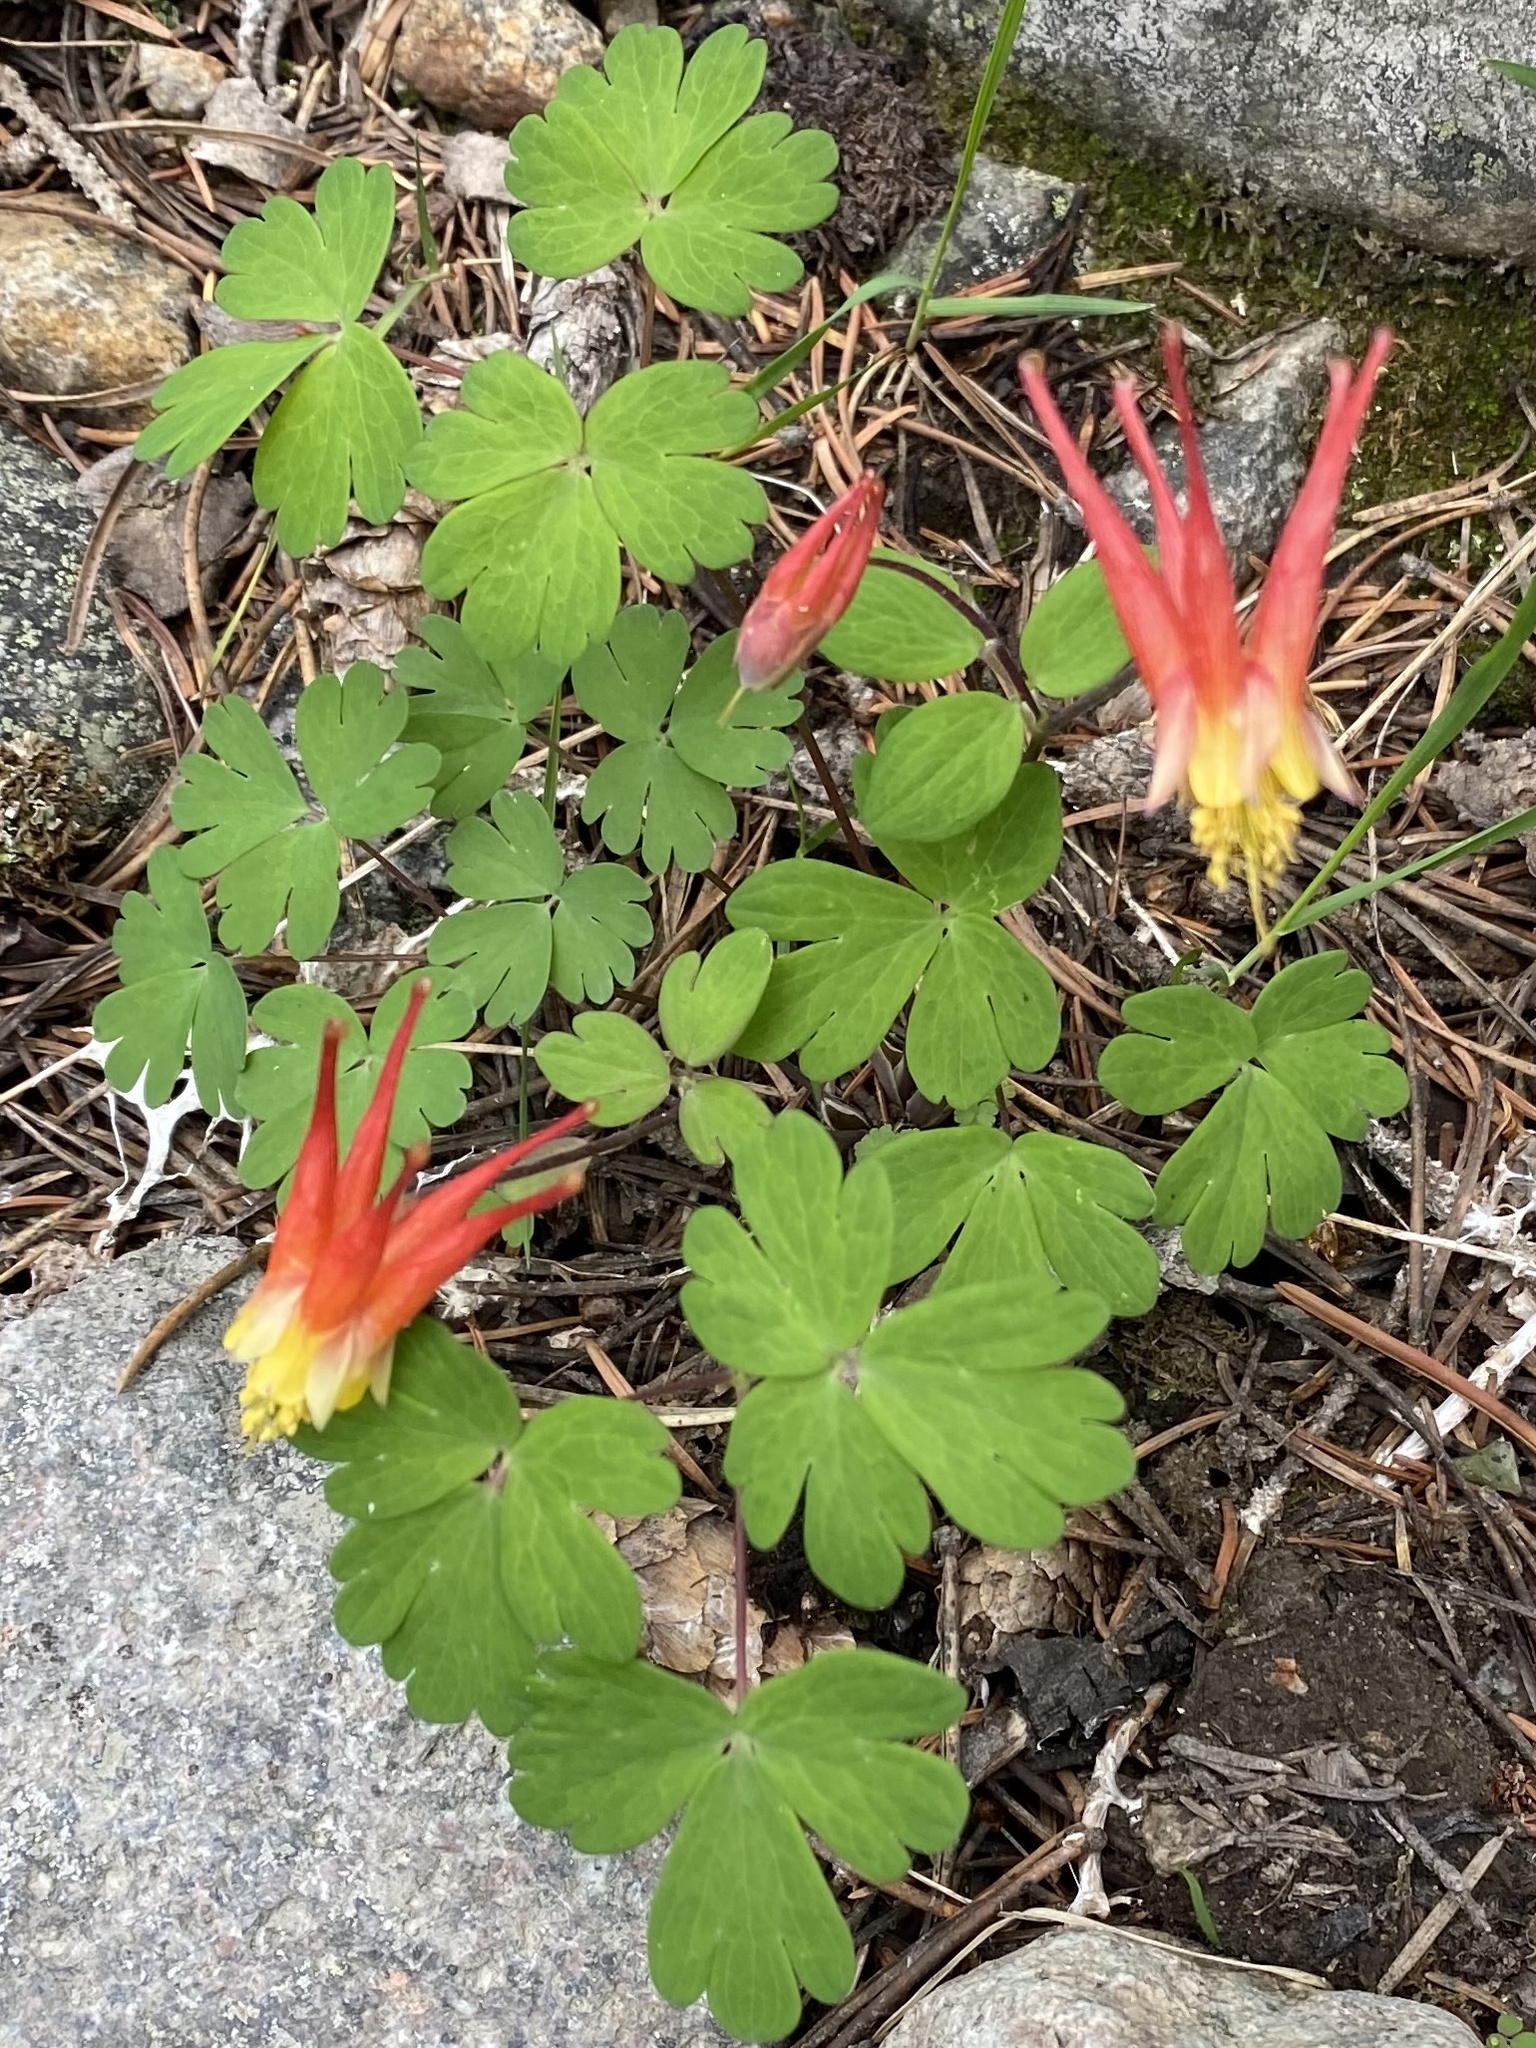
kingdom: Plantae
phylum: Tracheophyta
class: Magnoliopsida
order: Ranunculales
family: Ranunculaceae
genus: Aquilegia
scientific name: Aquilegia elegantula
